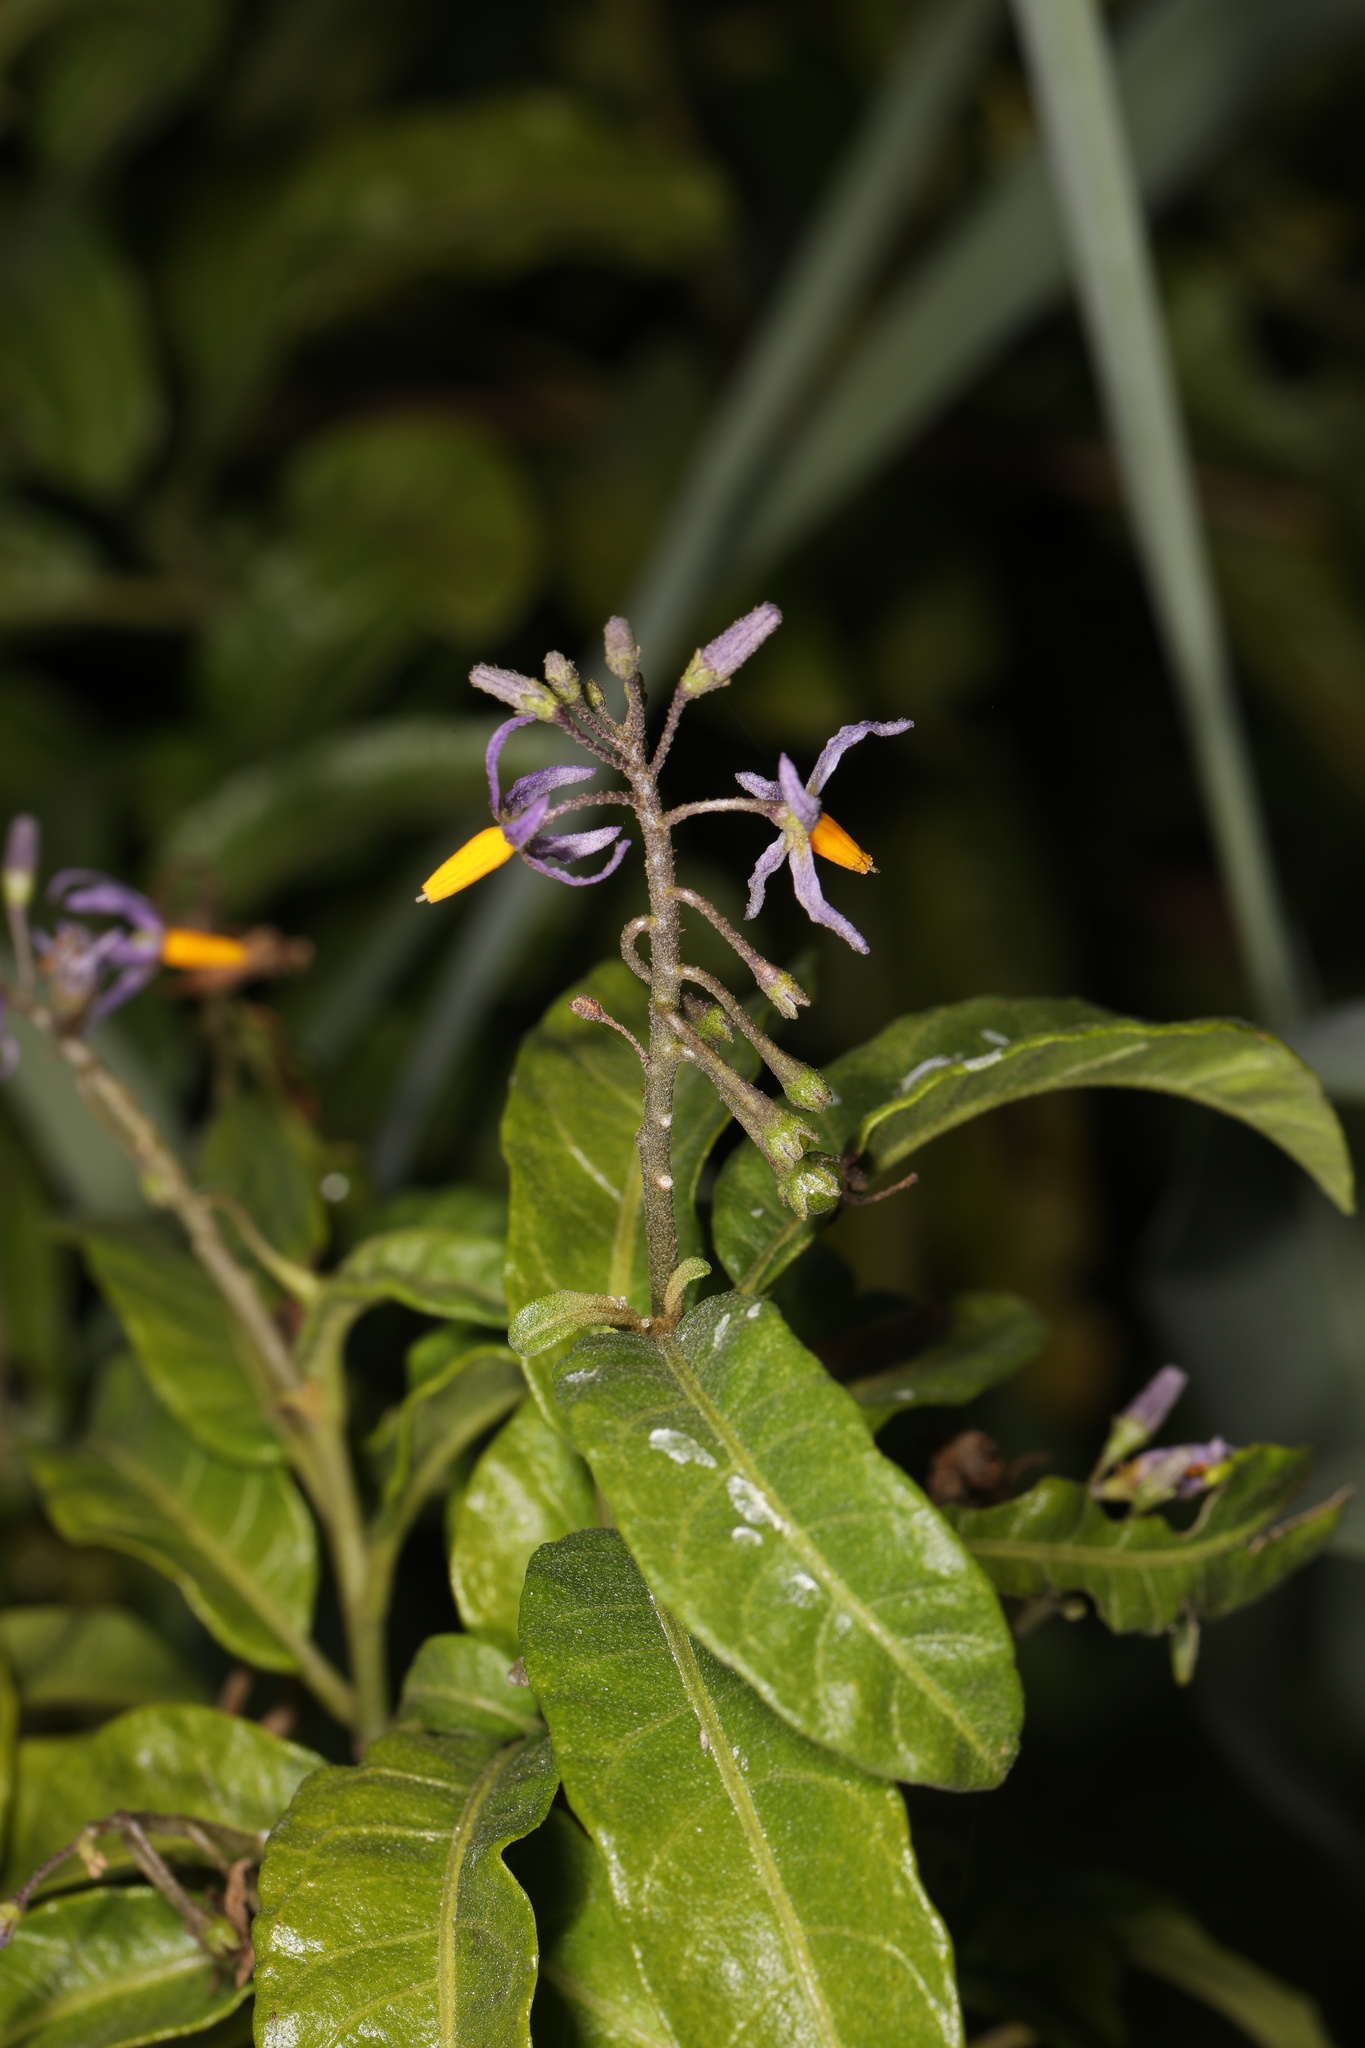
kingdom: Plantae
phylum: Tracheophyta
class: Magnoliopsida
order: Solanales
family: Solanaceae
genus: Solanum
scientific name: Solanum bahamense
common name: Canker-berry
